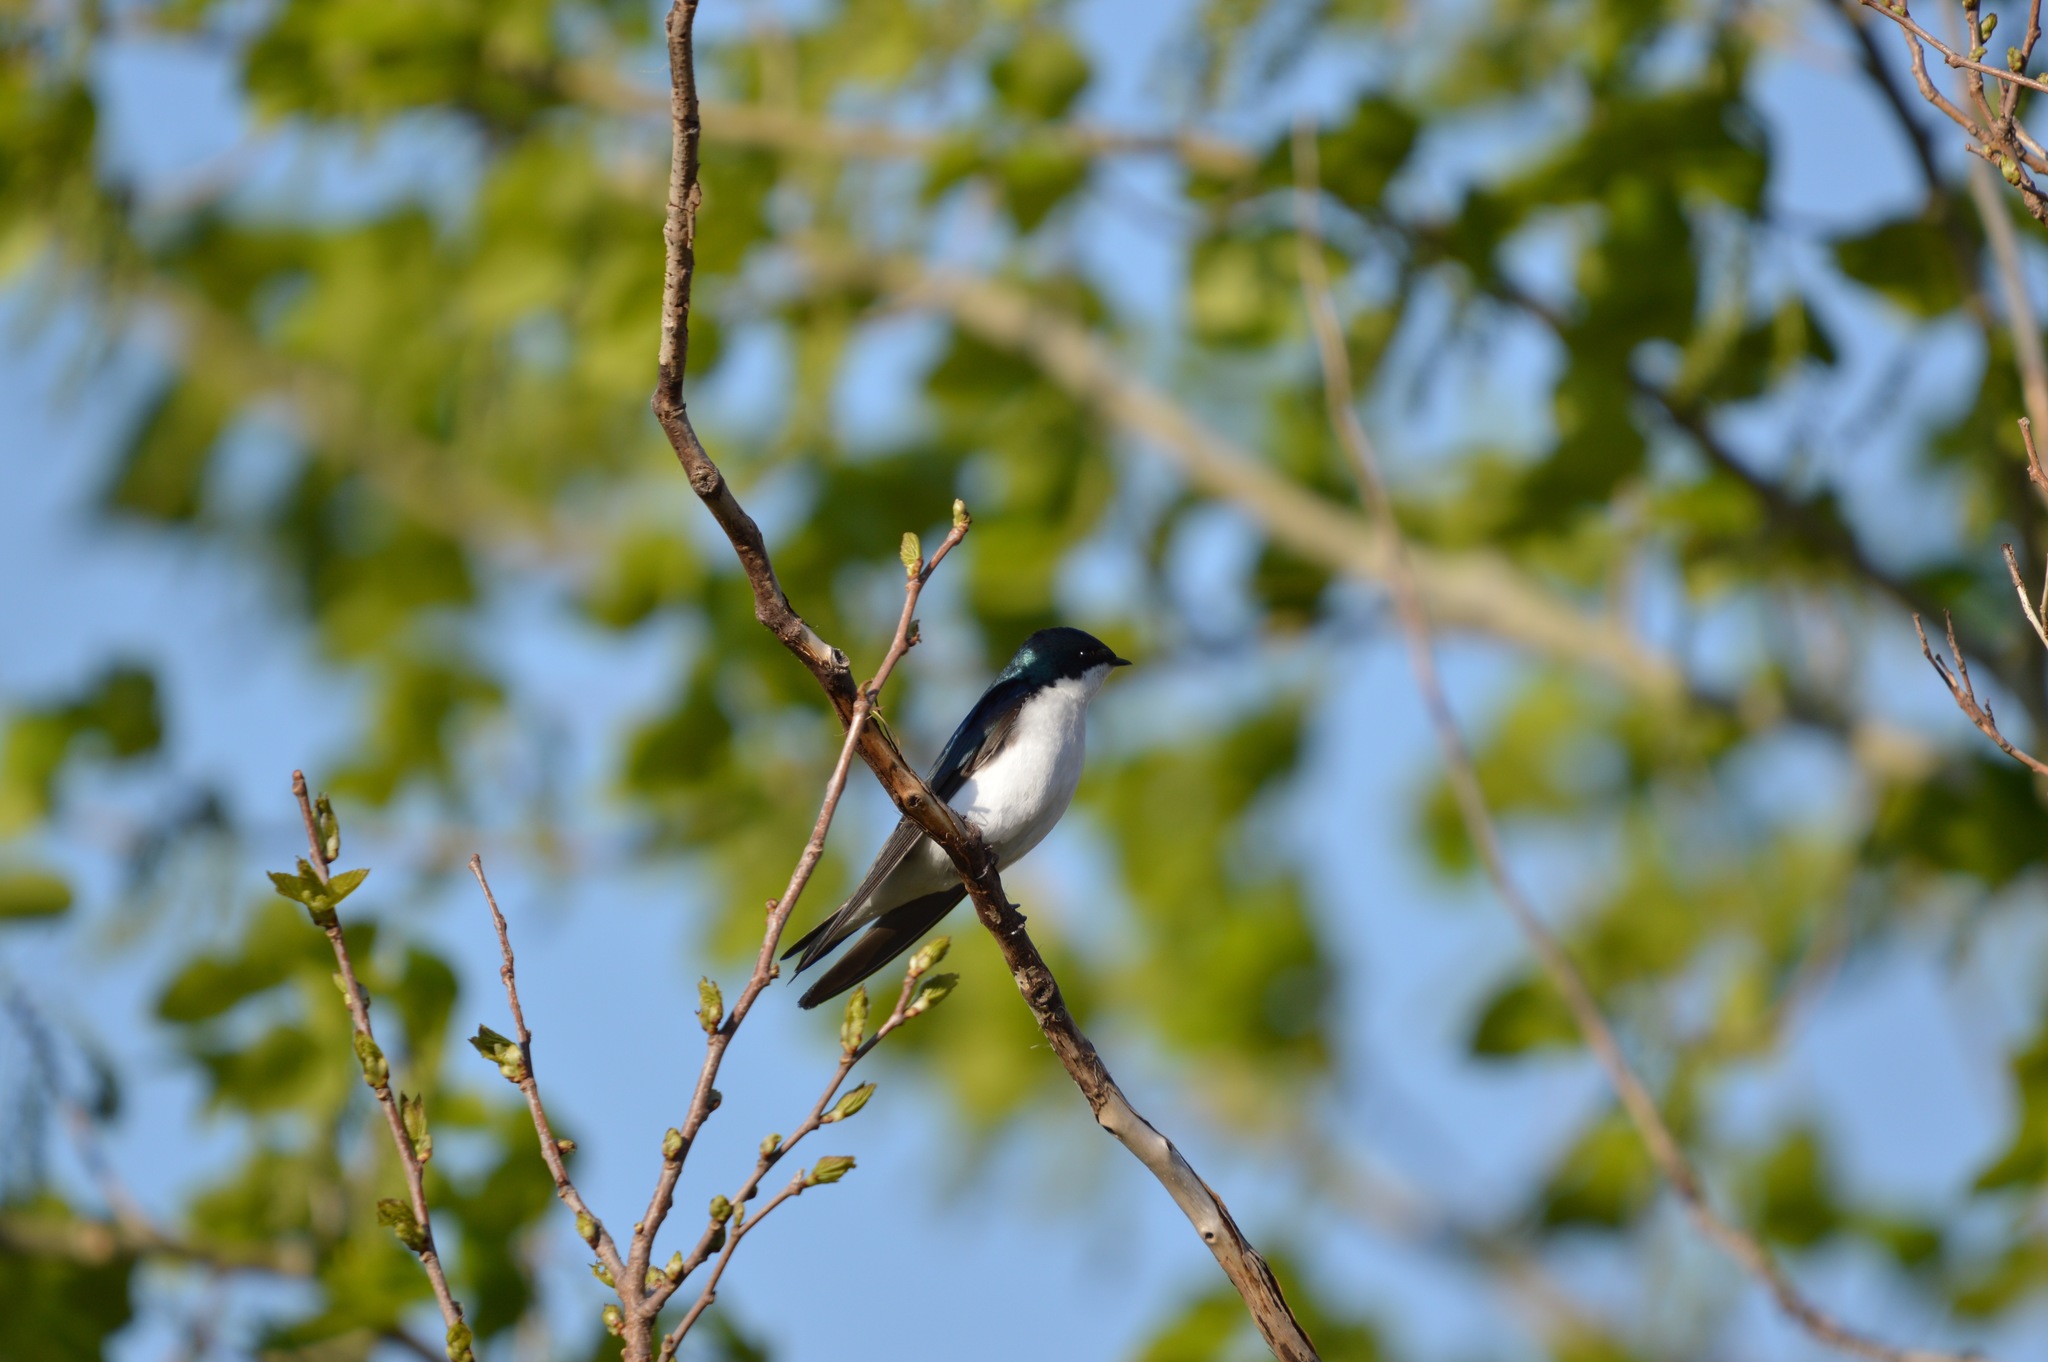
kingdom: Animalia
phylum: Chordata
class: Aves
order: Passeriformes
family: Hirundinidae
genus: Tachycineta
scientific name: Tachycineta bicolor
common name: Tree swallow
